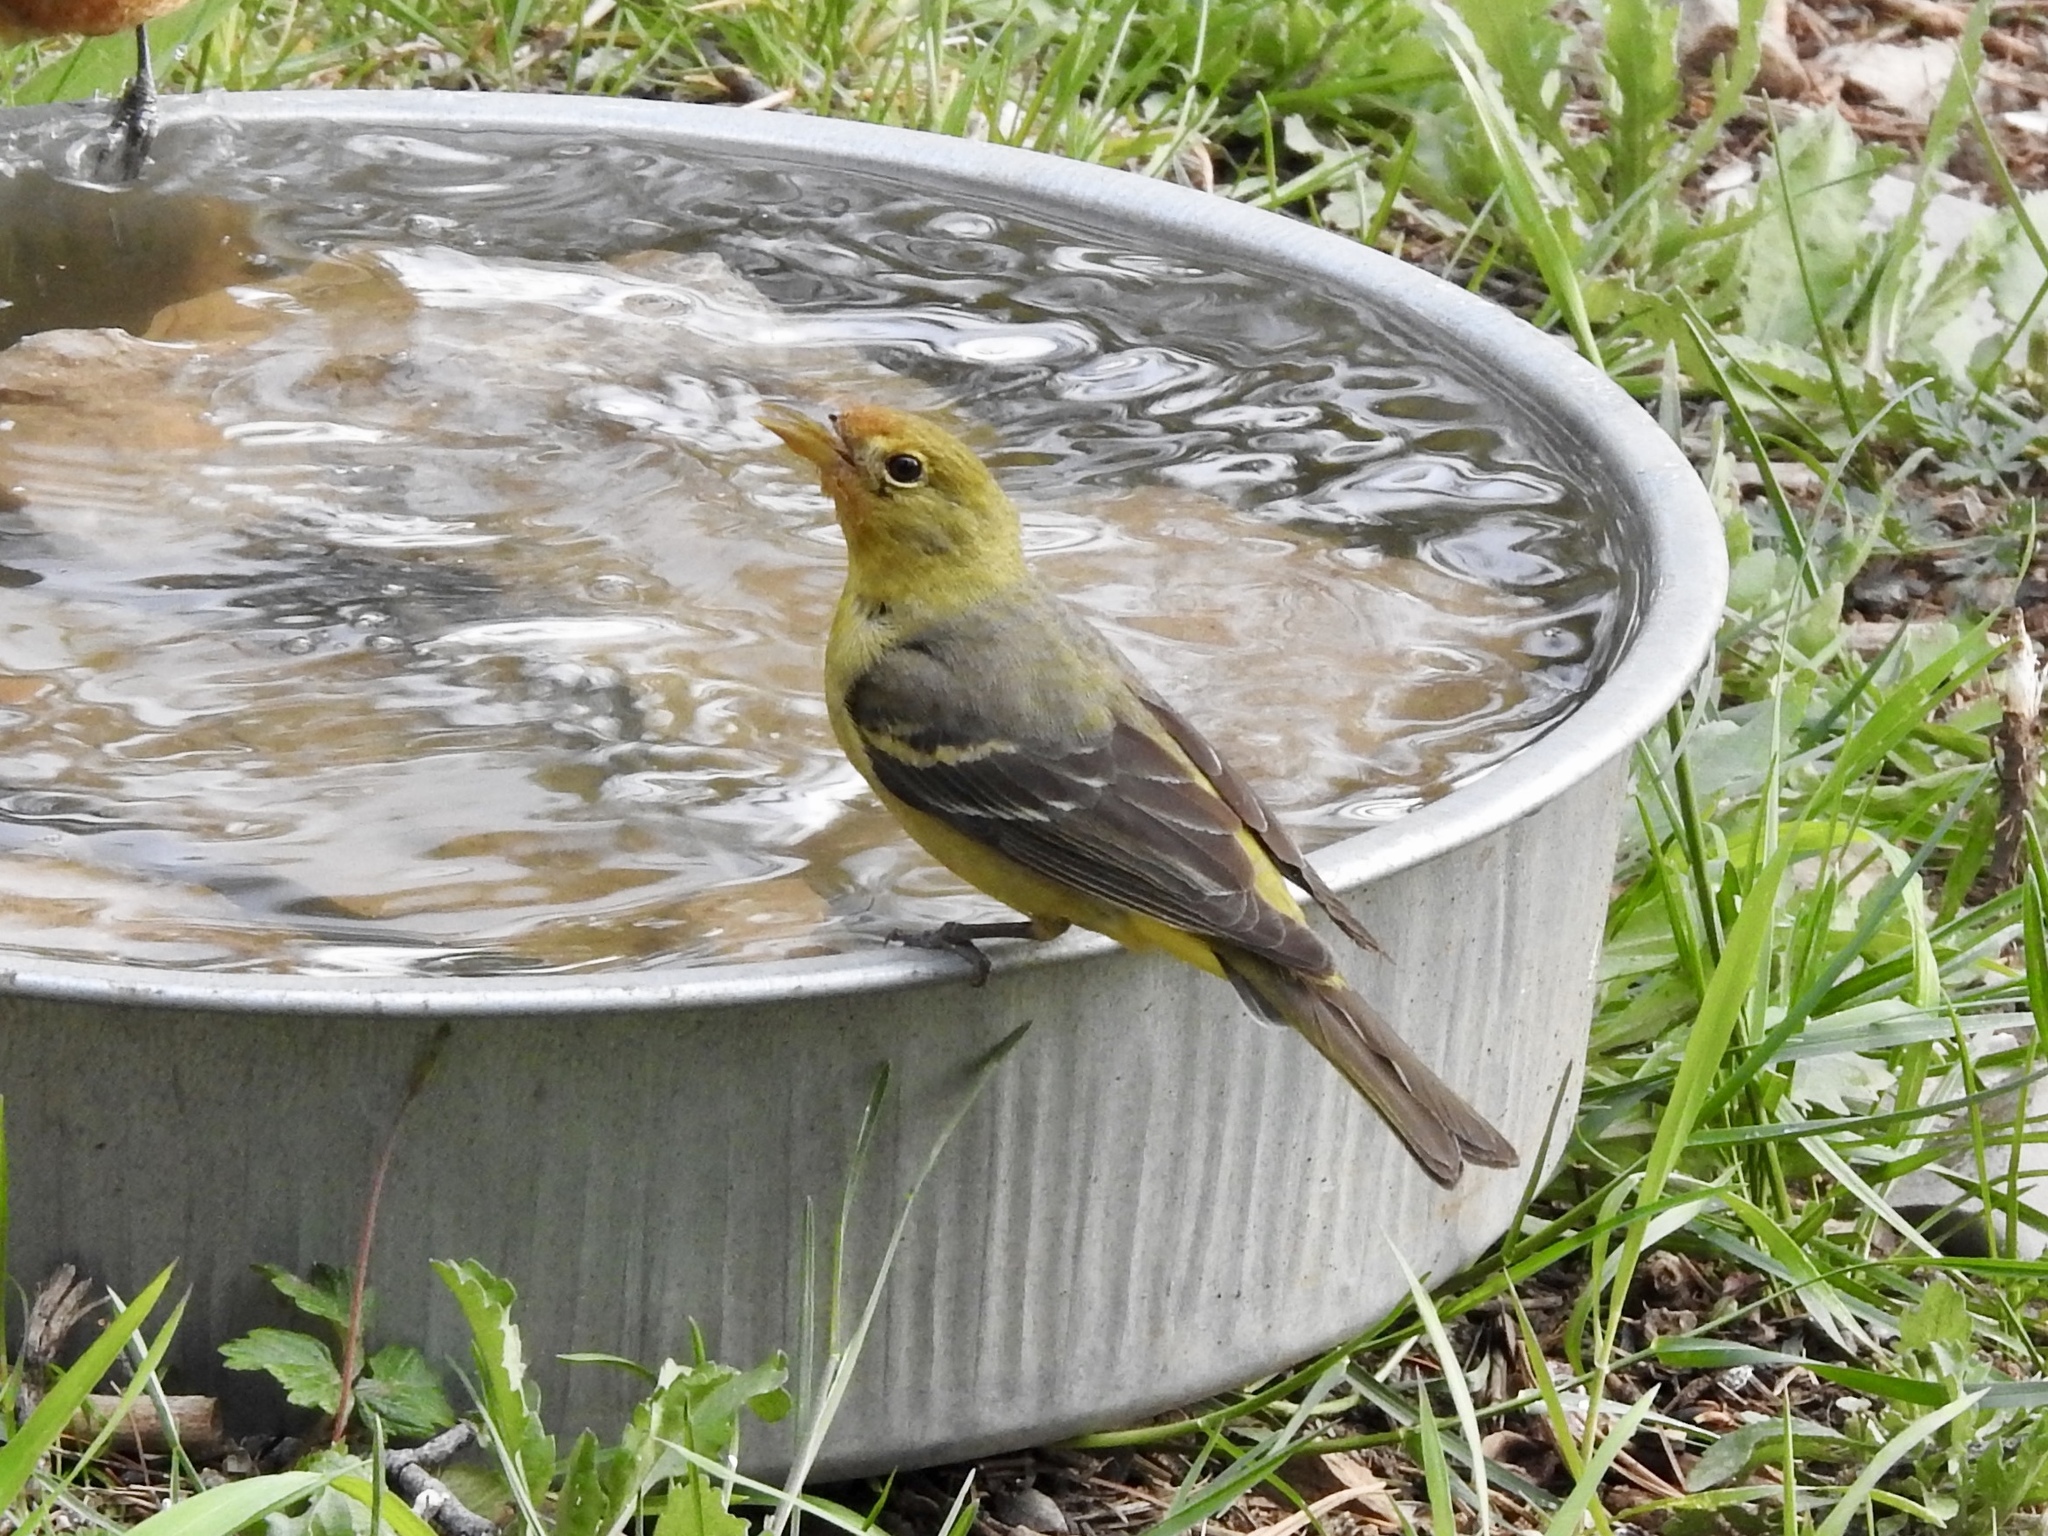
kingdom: Animalia
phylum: Chordata
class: Aves
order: Passeriformes
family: Cardinalidae
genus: Piranga
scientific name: Piranga ludoviciana
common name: Western tanager
